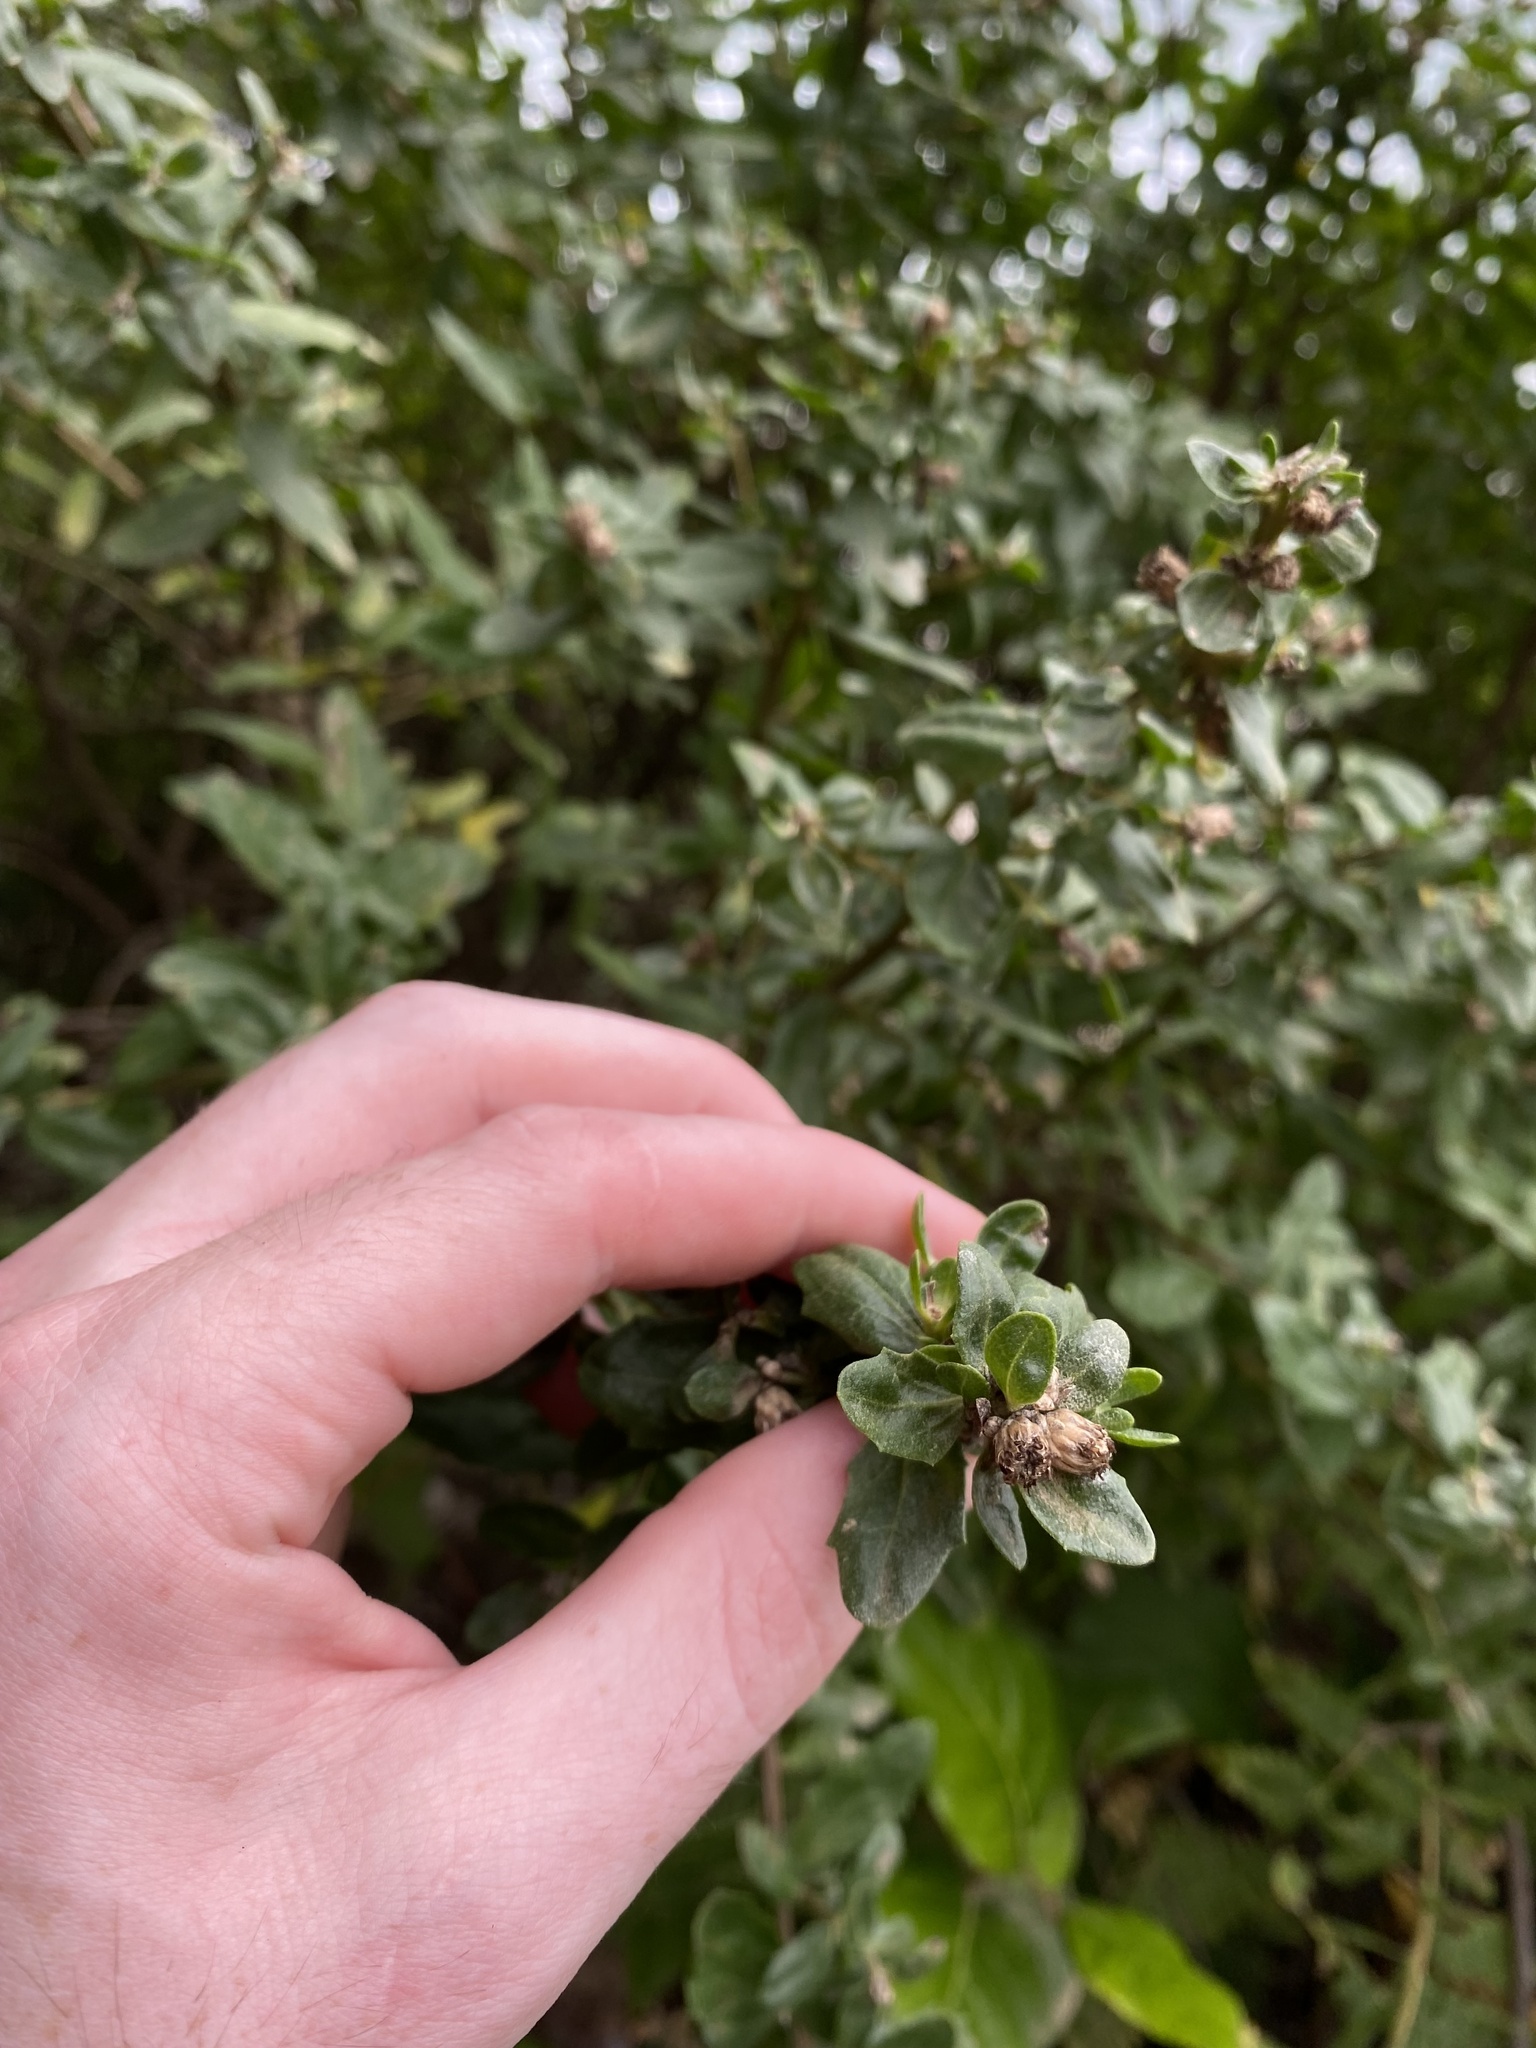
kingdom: Plantae
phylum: Tracheophyta
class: Magnoliopsida
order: Asterales
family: Asteraceae
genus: Baccharis
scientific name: Baccharis pilularis
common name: Coyotebrush
